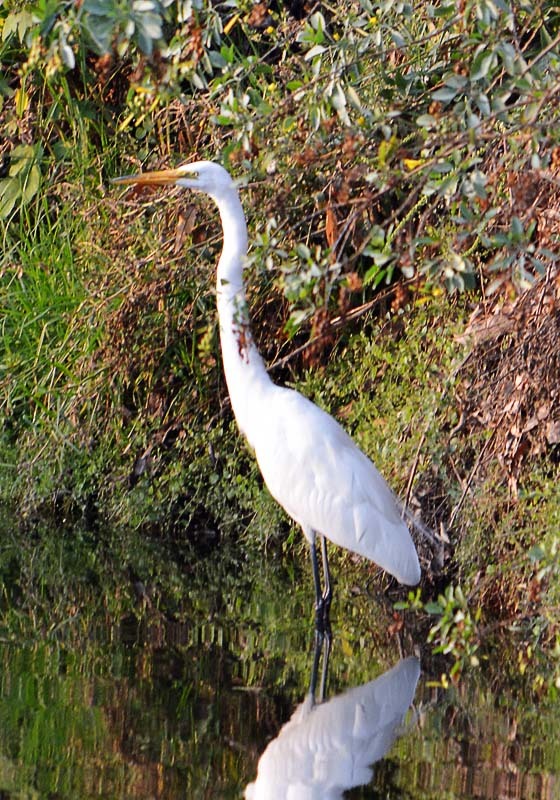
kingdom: Animalia
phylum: Chordata
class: Aves
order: Pelecaniformes
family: Ardeidae
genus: Ardea
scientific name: Ardea alba
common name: Great egret
